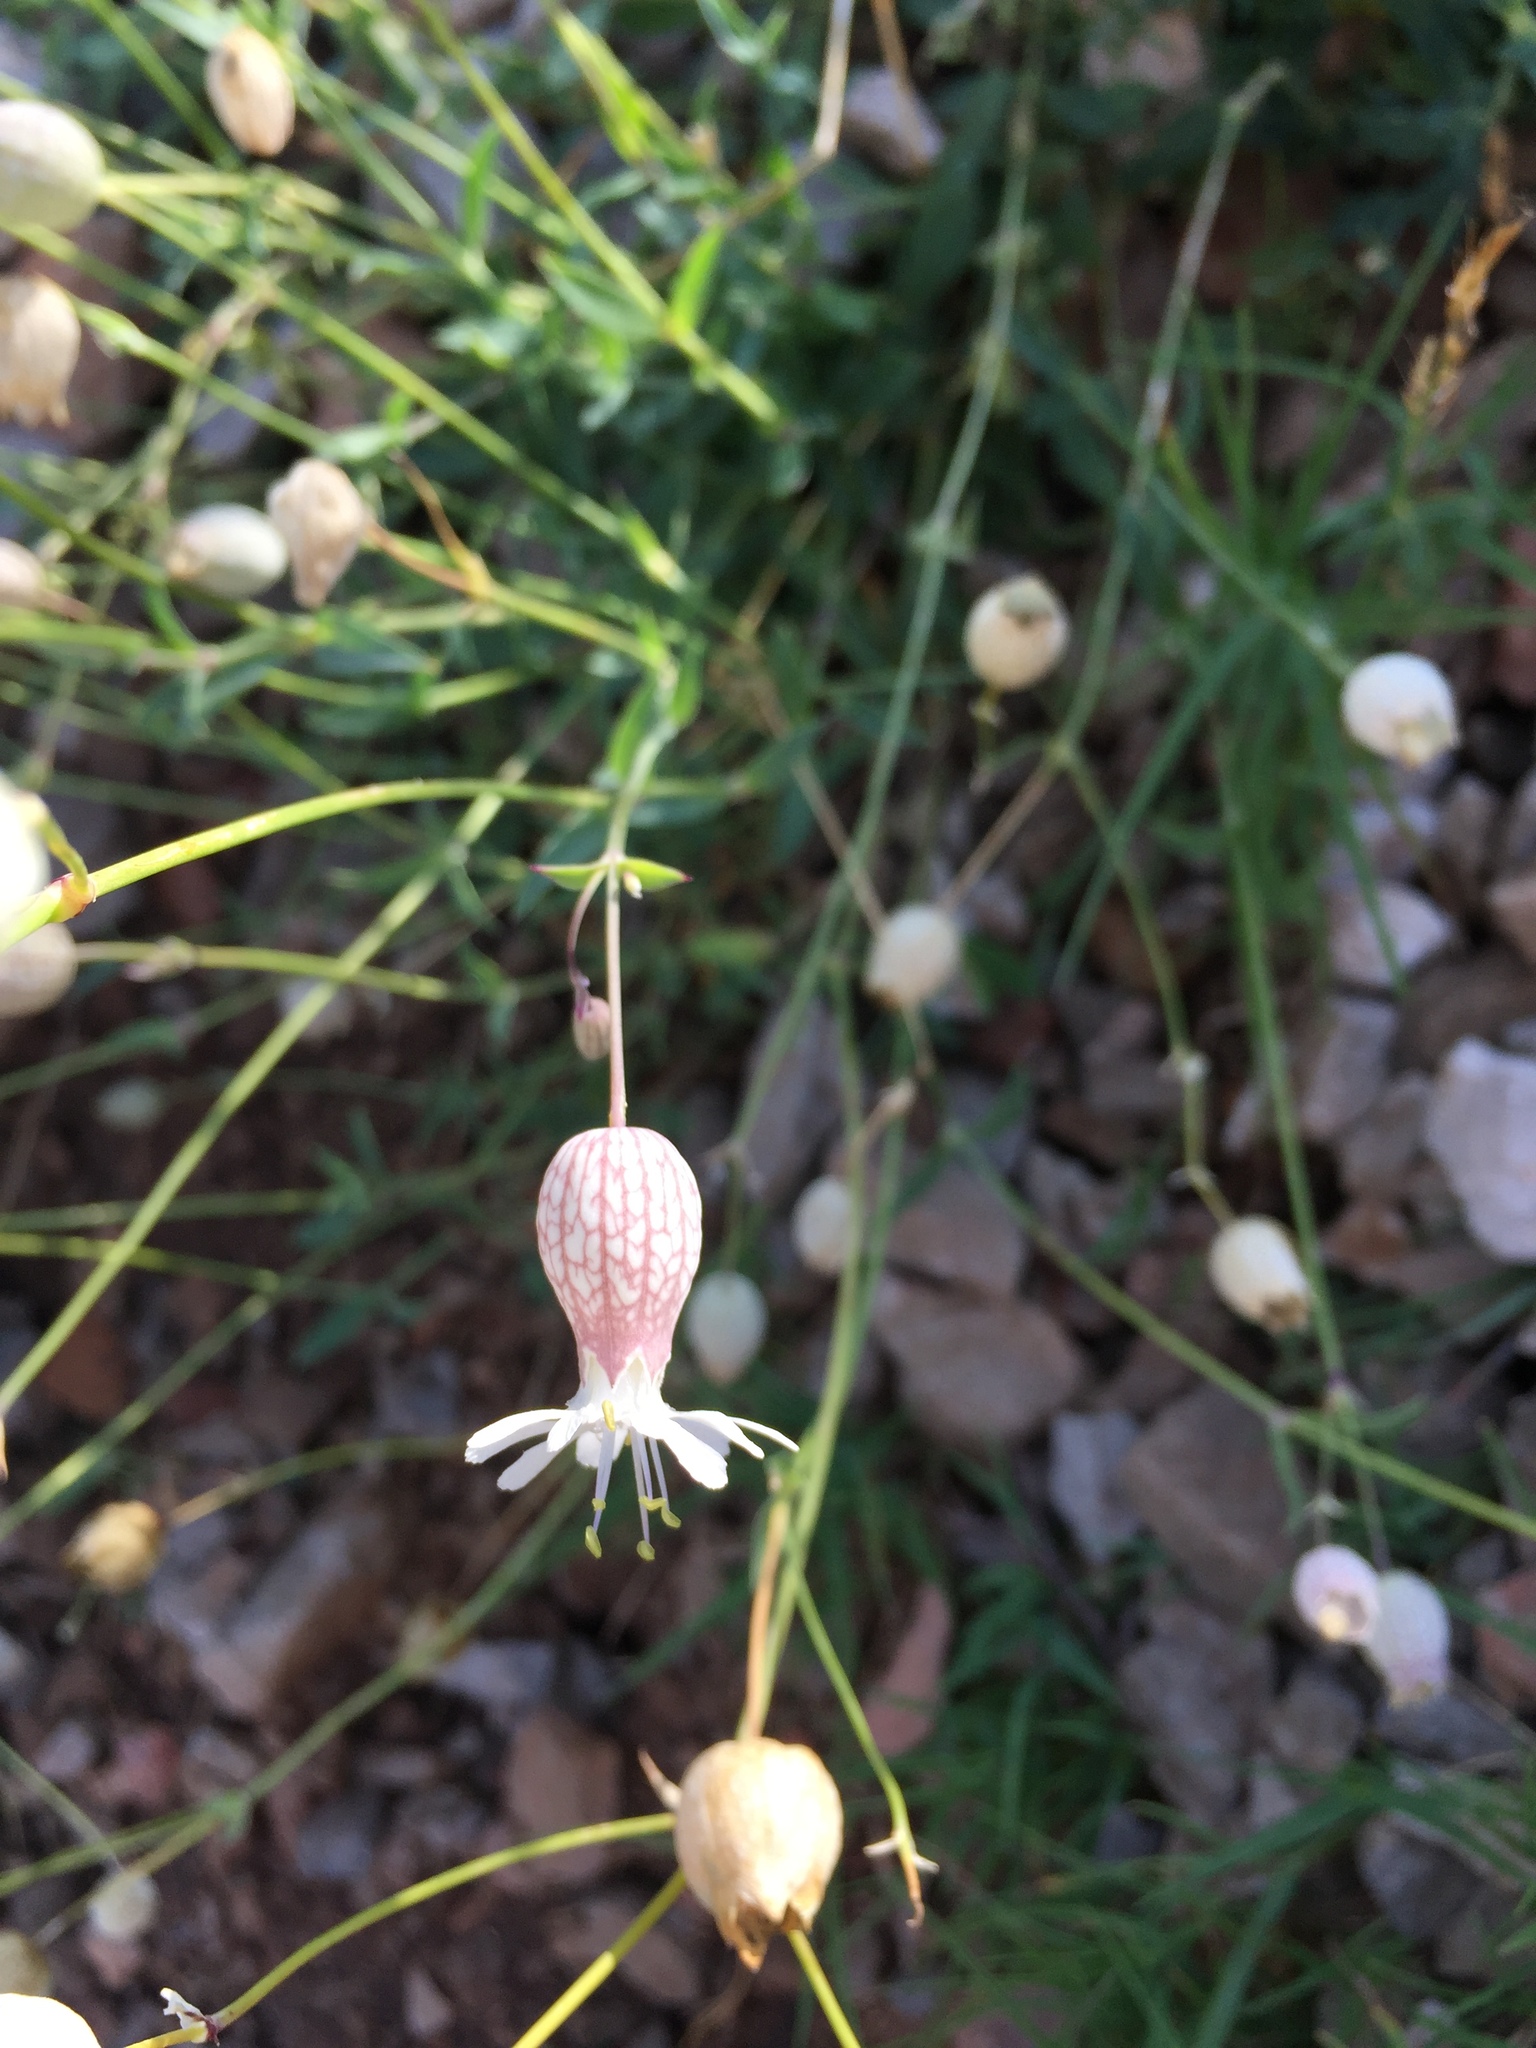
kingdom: Plantae
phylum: Tracheophyta
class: Magnoliopsida
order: Caryophyllales
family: Caryophyllaceae
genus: Silene
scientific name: Silene vulgaris
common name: Bladder campion
